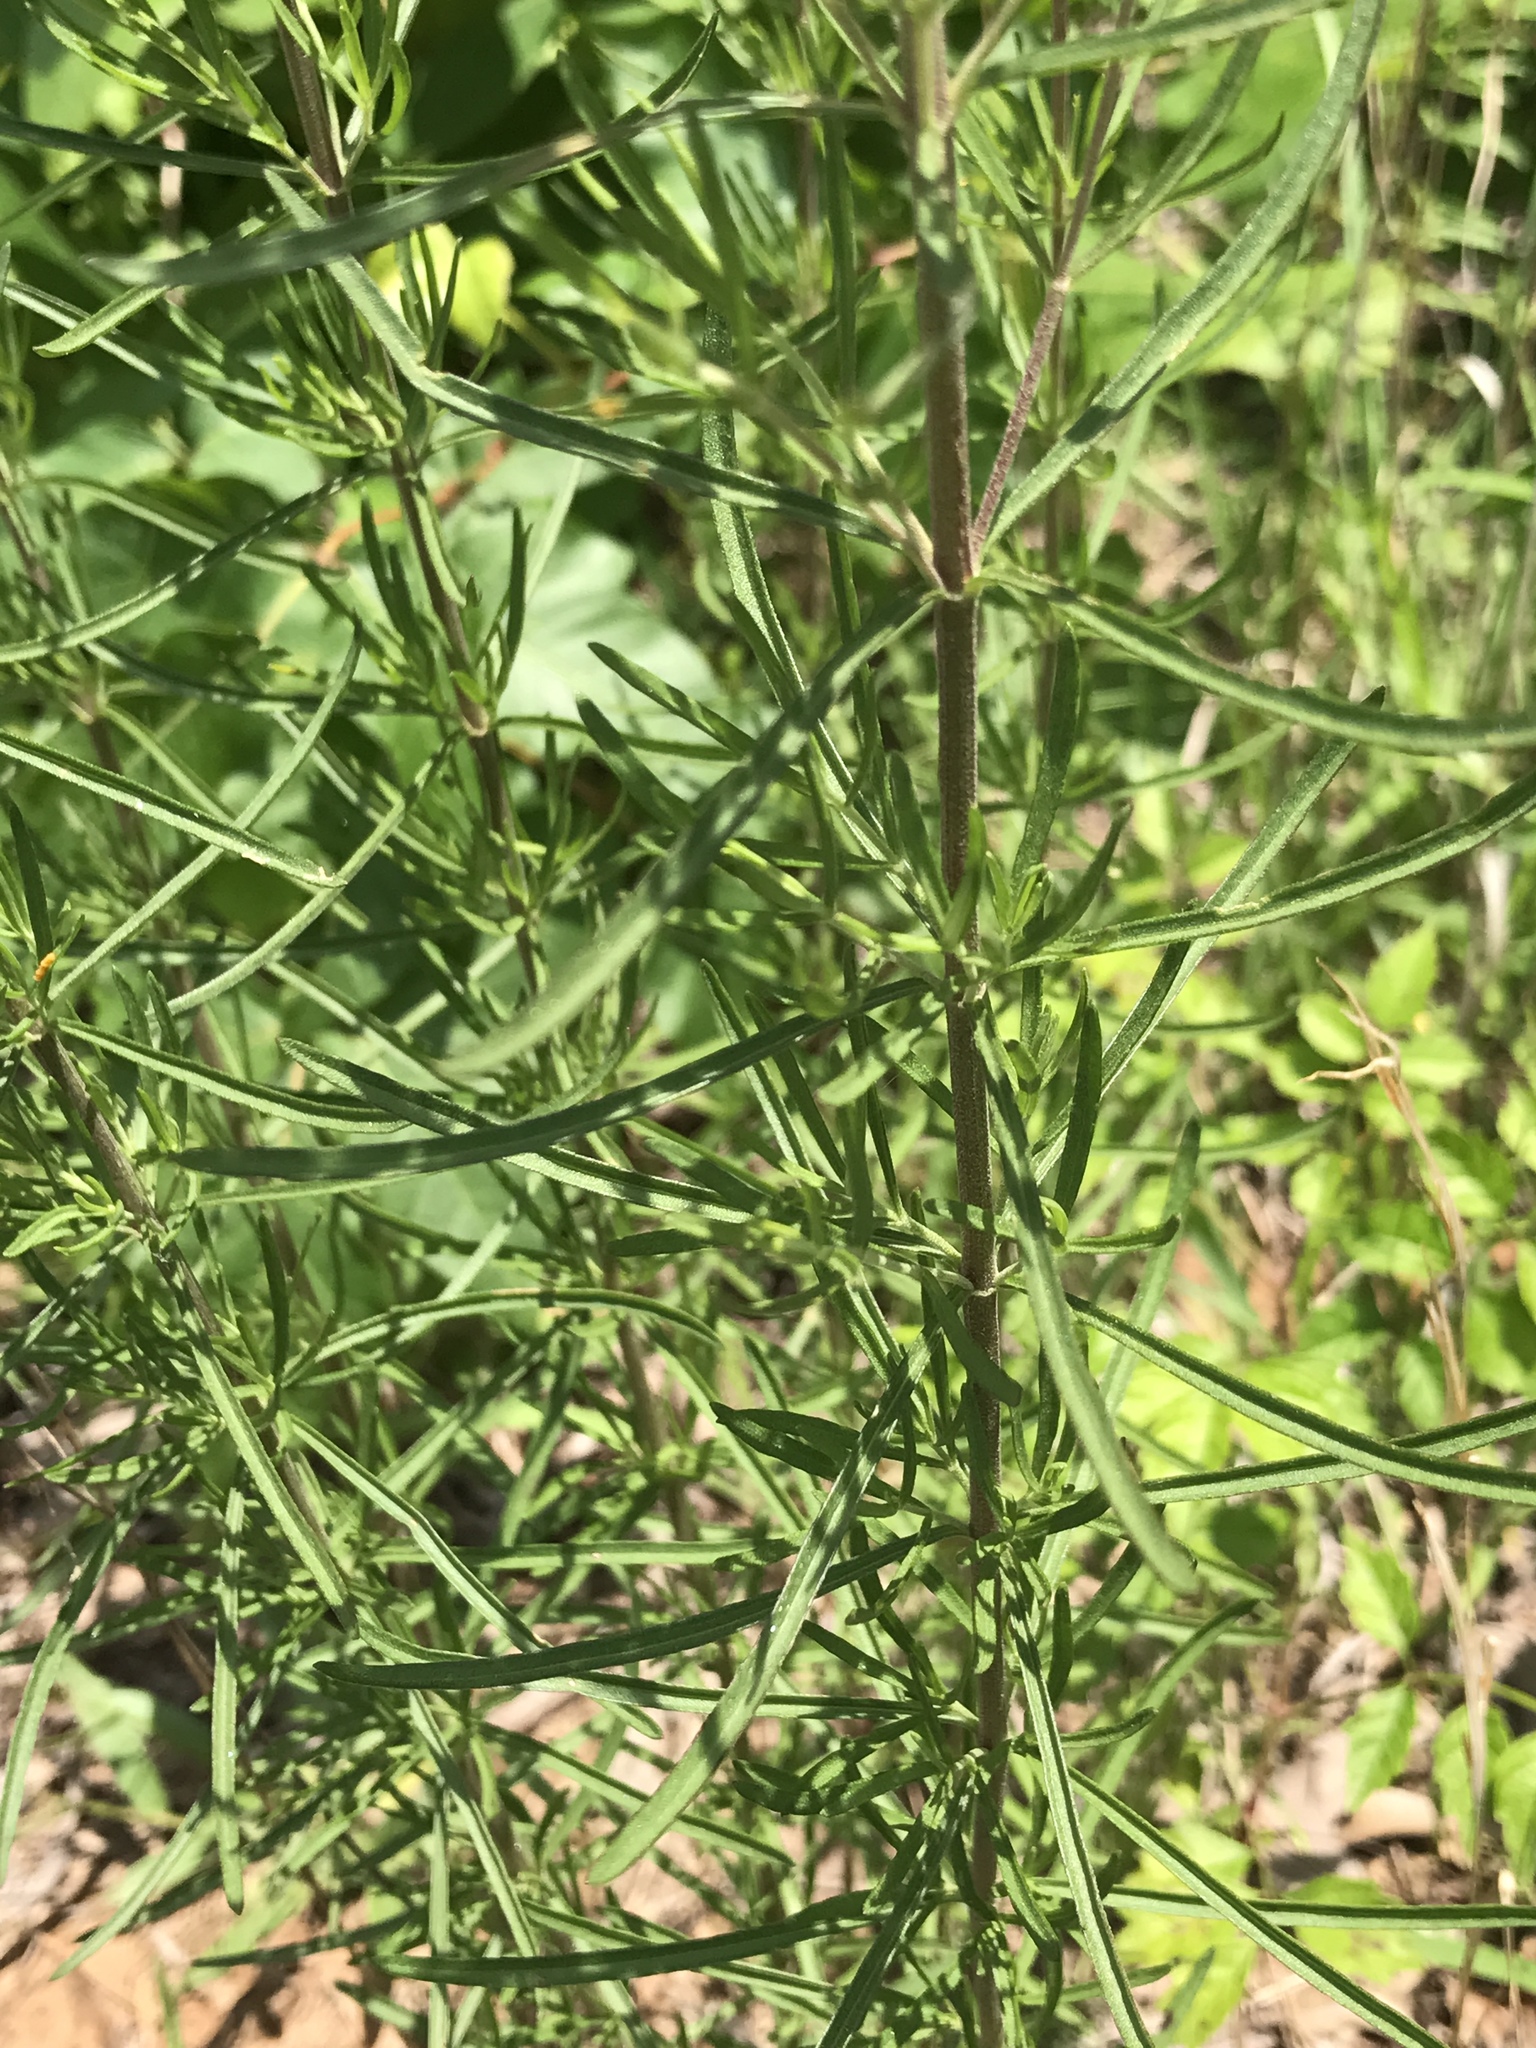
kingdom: Plantae
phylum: Tracheophyta
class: Magnoliopsida
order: Asterales
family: Asteraceae
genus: Eupatorium
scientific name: Eupatorium hyssopifolium
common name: Hyssop-leaf thoroughwort
